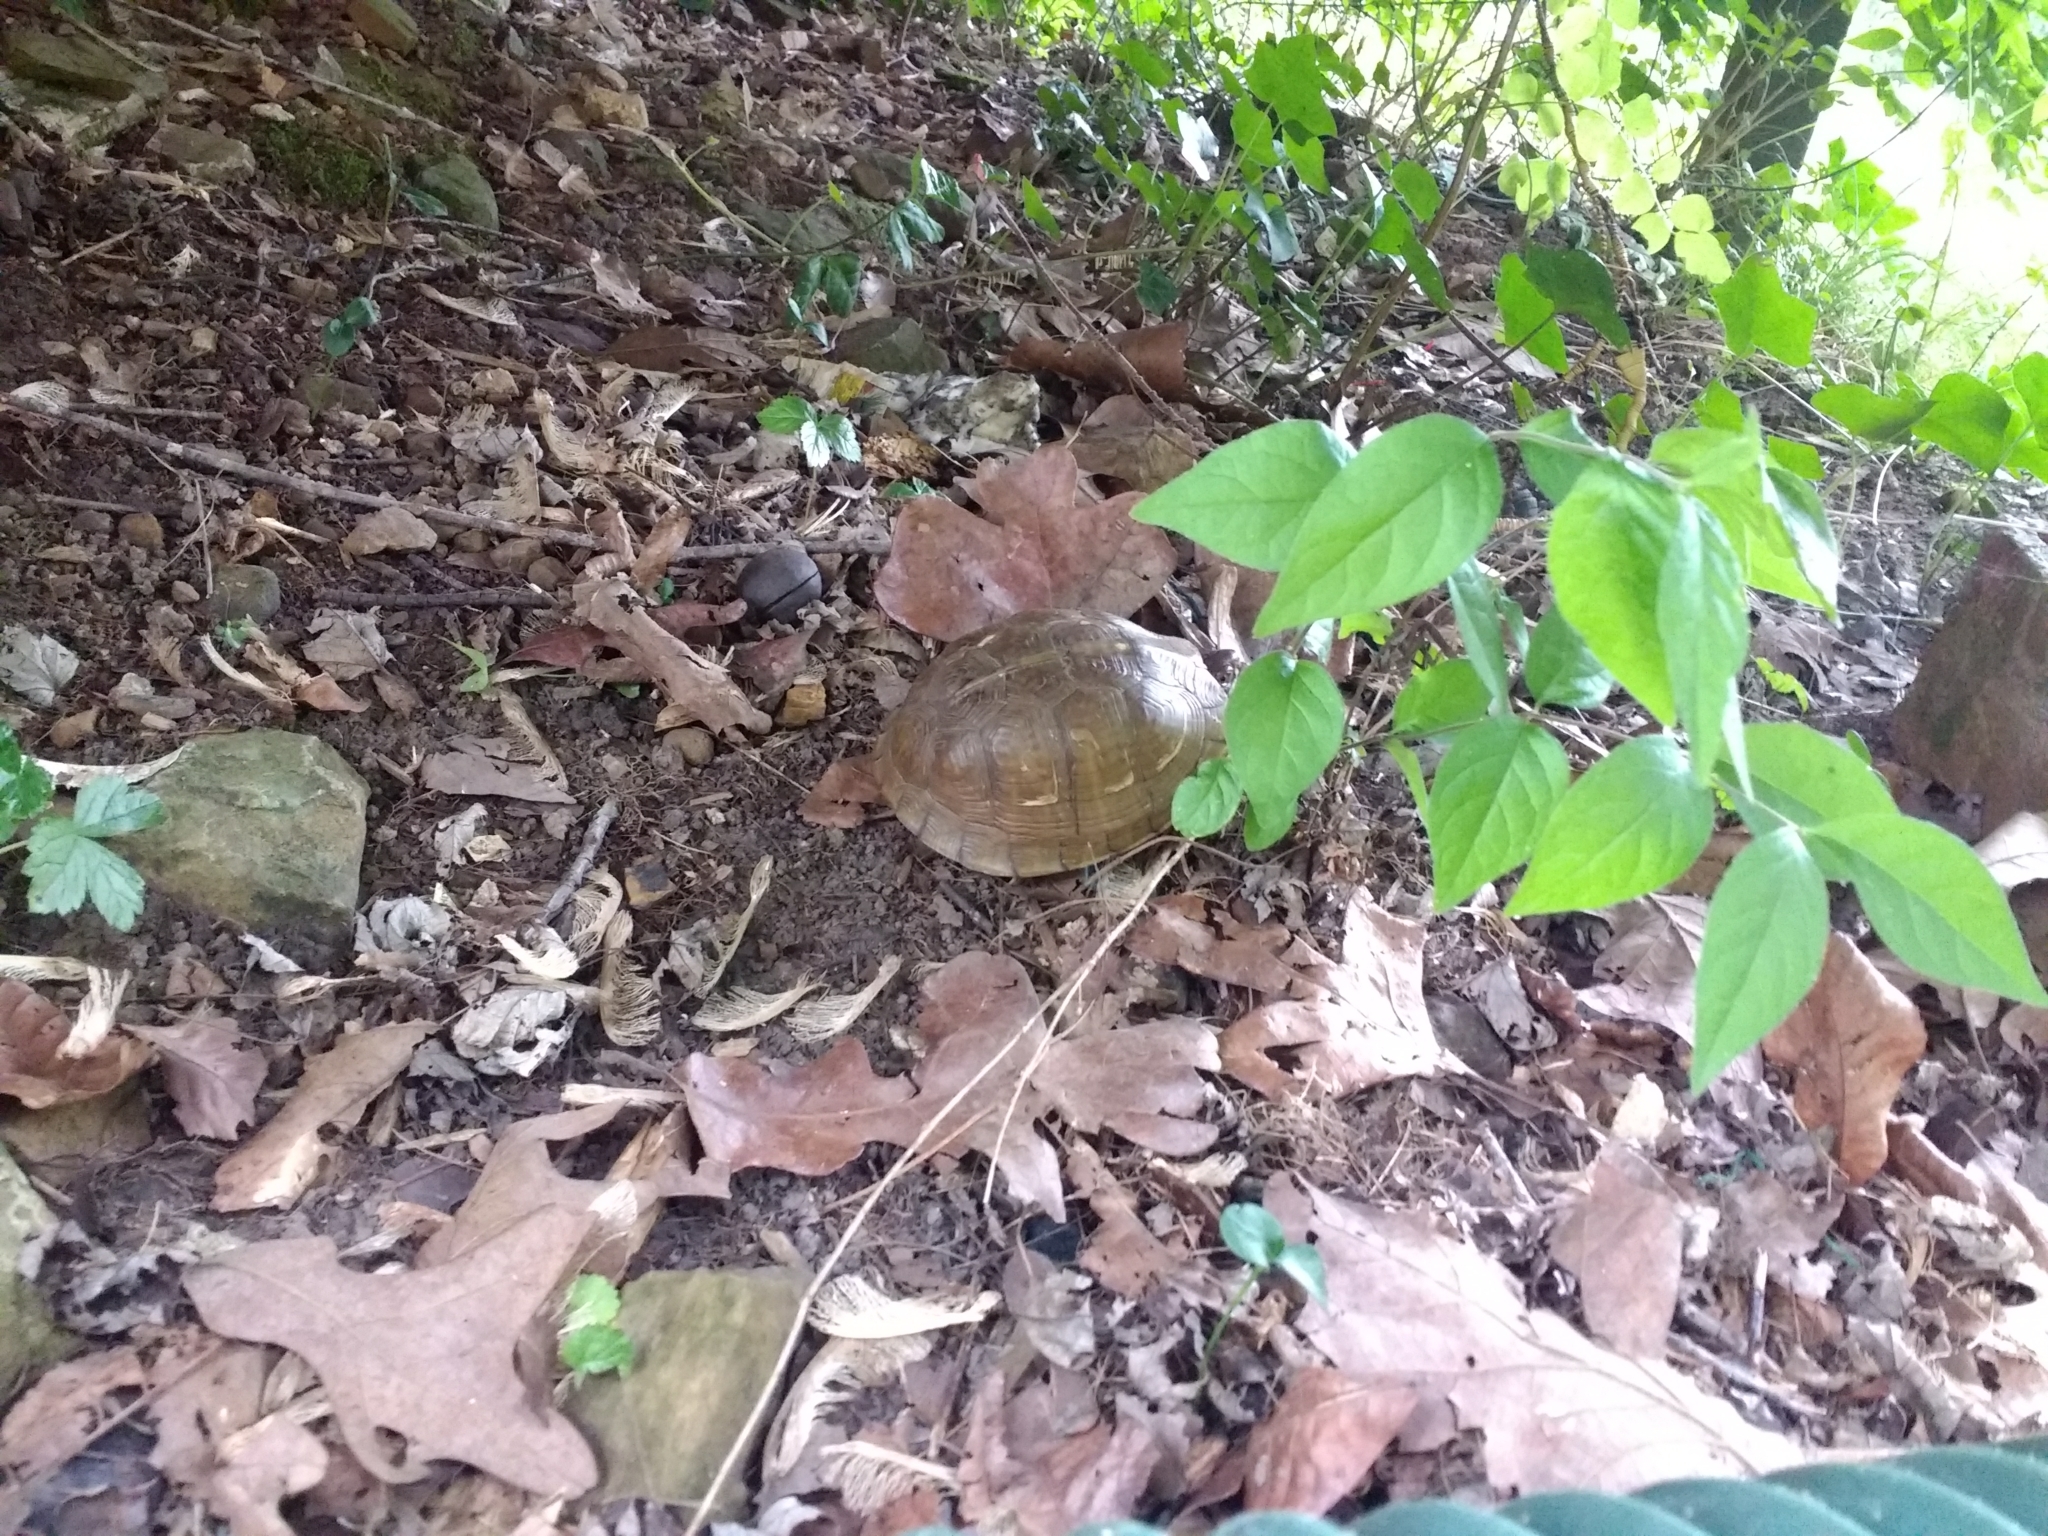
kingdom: Animalia
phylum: Chordata
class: Testudines
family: Emydidae
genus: Terrapene
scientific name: Terrapene carolina
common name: Common box turtle
